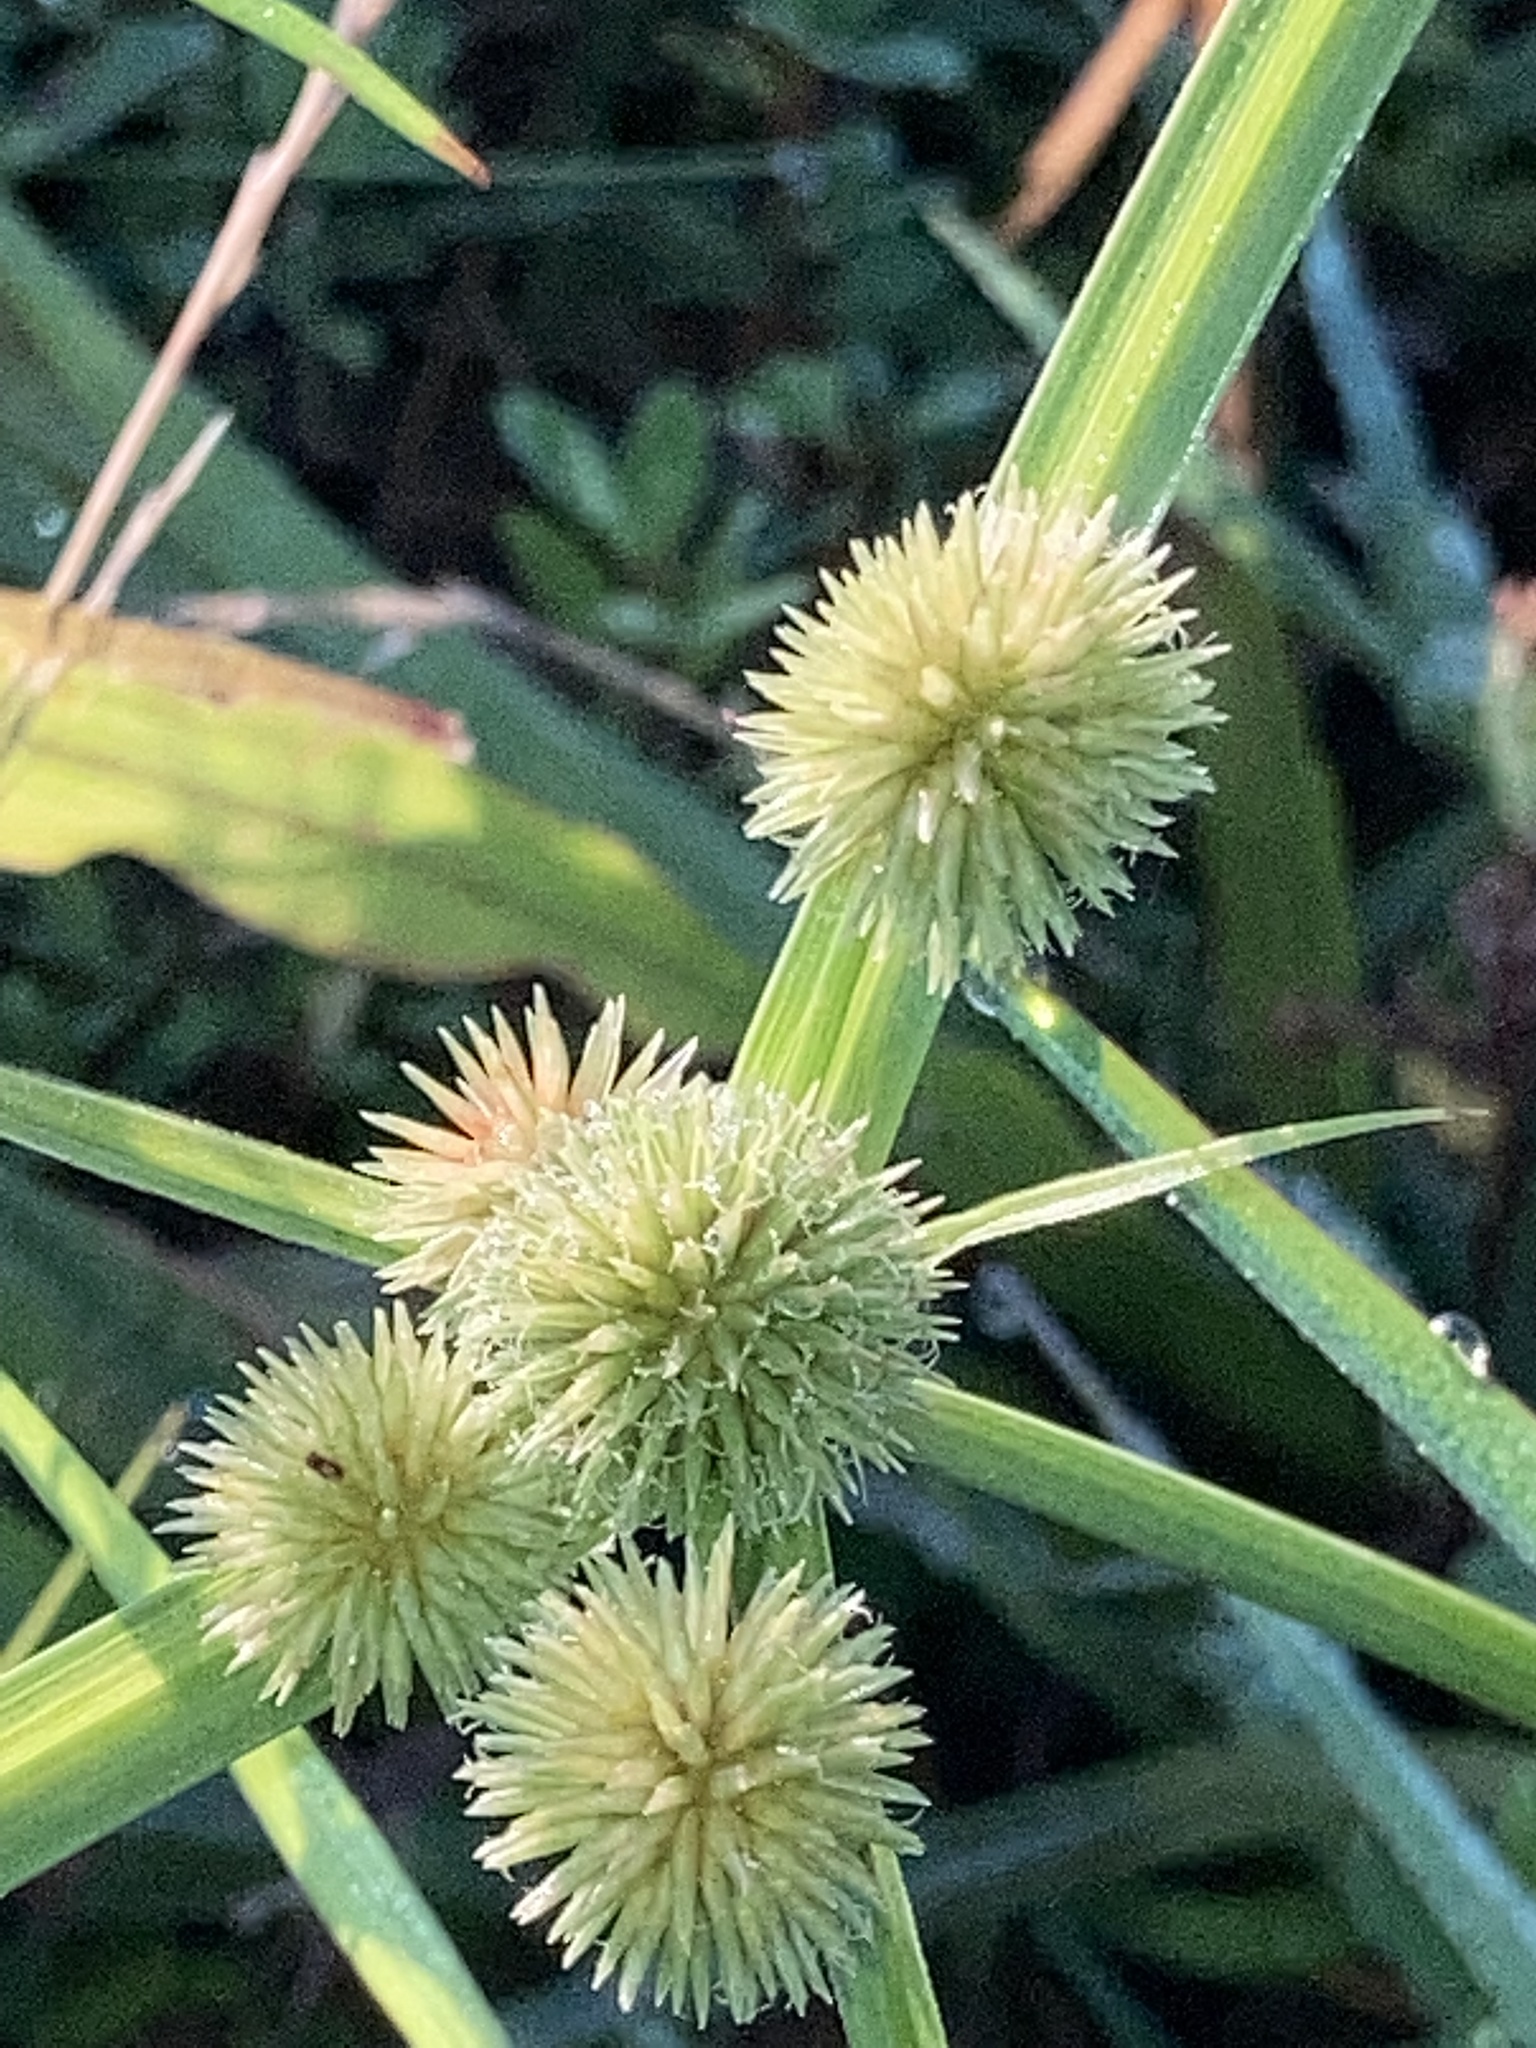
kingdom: Plantae
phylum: Tracheophyta
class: Liliopsida
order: Poales
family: Cyperaceae
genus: Cyperus
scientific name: Cyperus echinatus
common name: Teasel sedge
